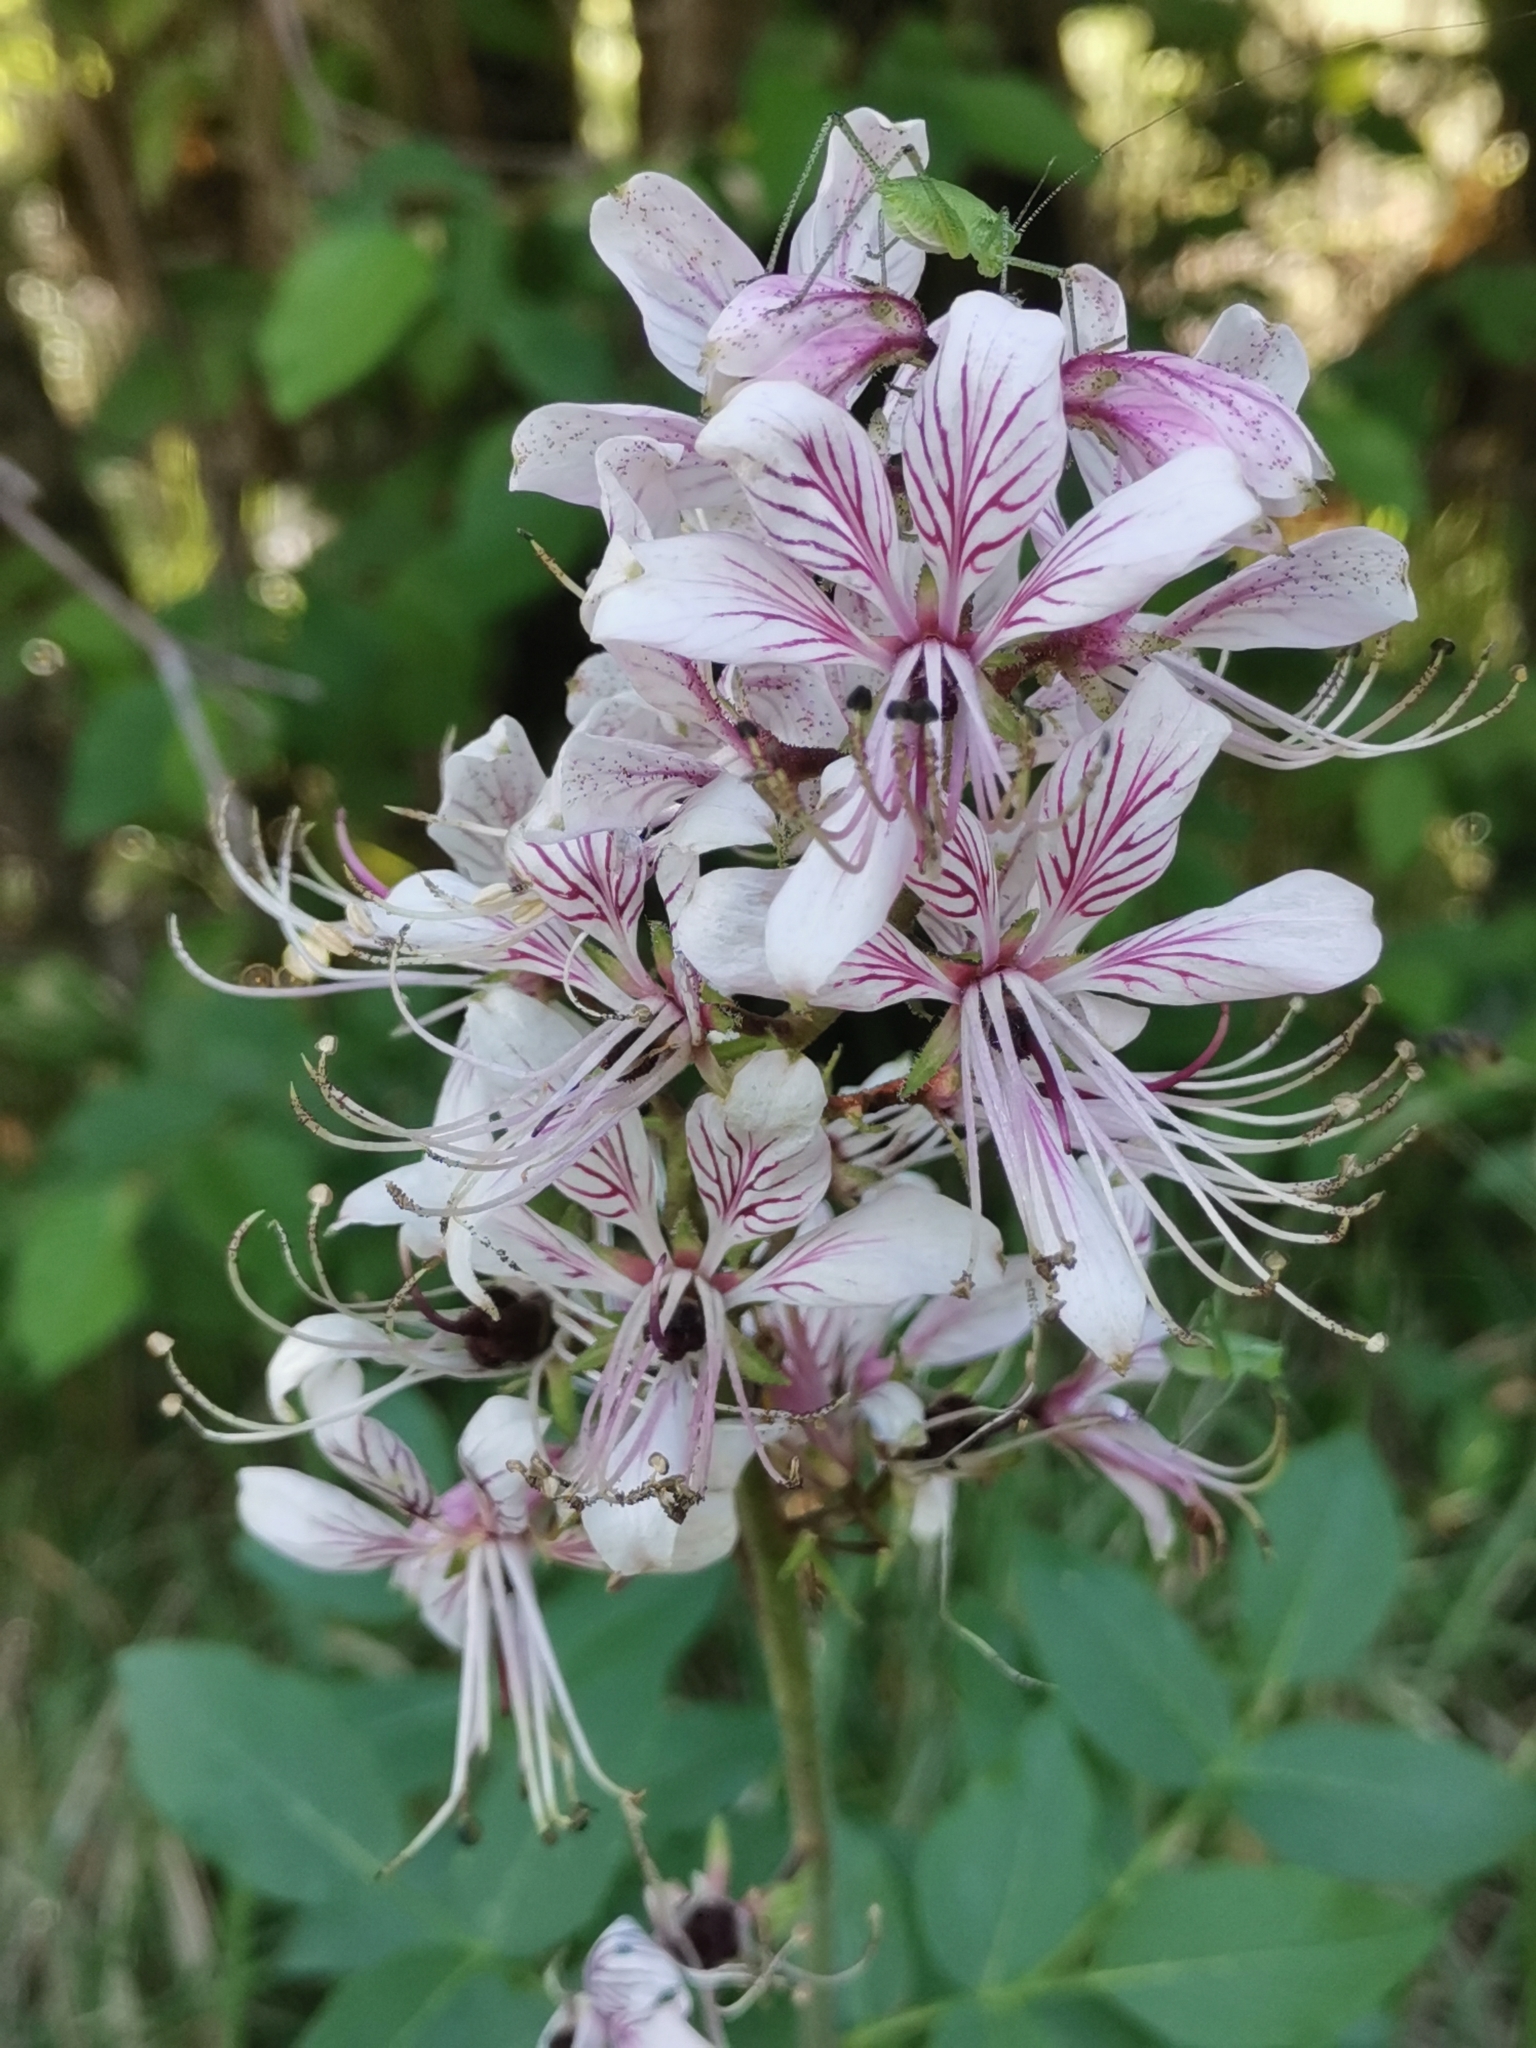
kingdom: Plantae
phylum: Tracheophyta
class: Magnoliopsida
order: Sapindales
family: Rutaceae
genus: Dictamnus
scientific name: Dictamnus albus
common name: Gasplant
